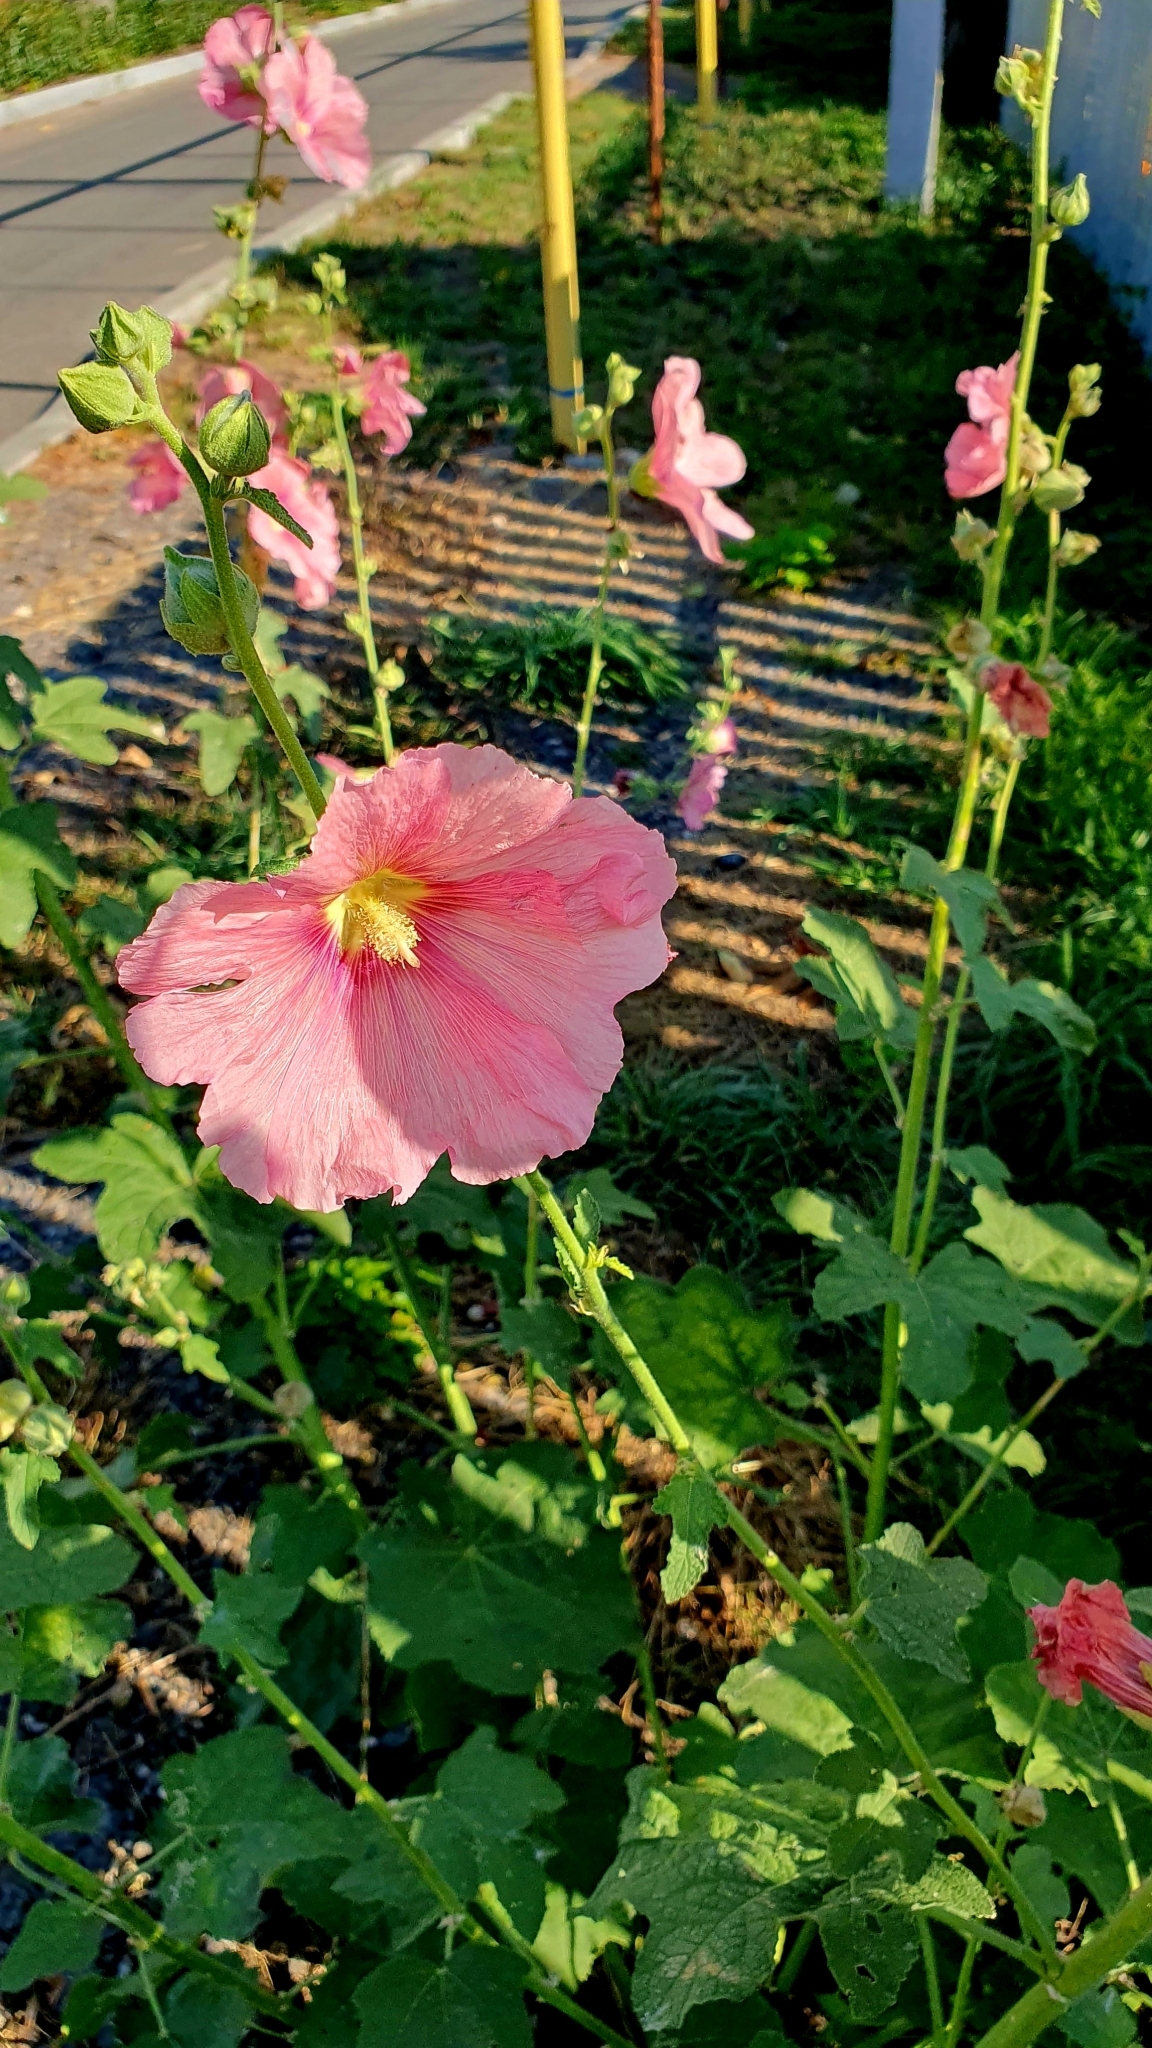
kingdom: Plantae
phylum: Tracheophyta
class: Magnoliopsida
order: Malvales
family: Malvaceae
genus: Alcea
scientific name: Alcea rosea
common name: Hollyhock
